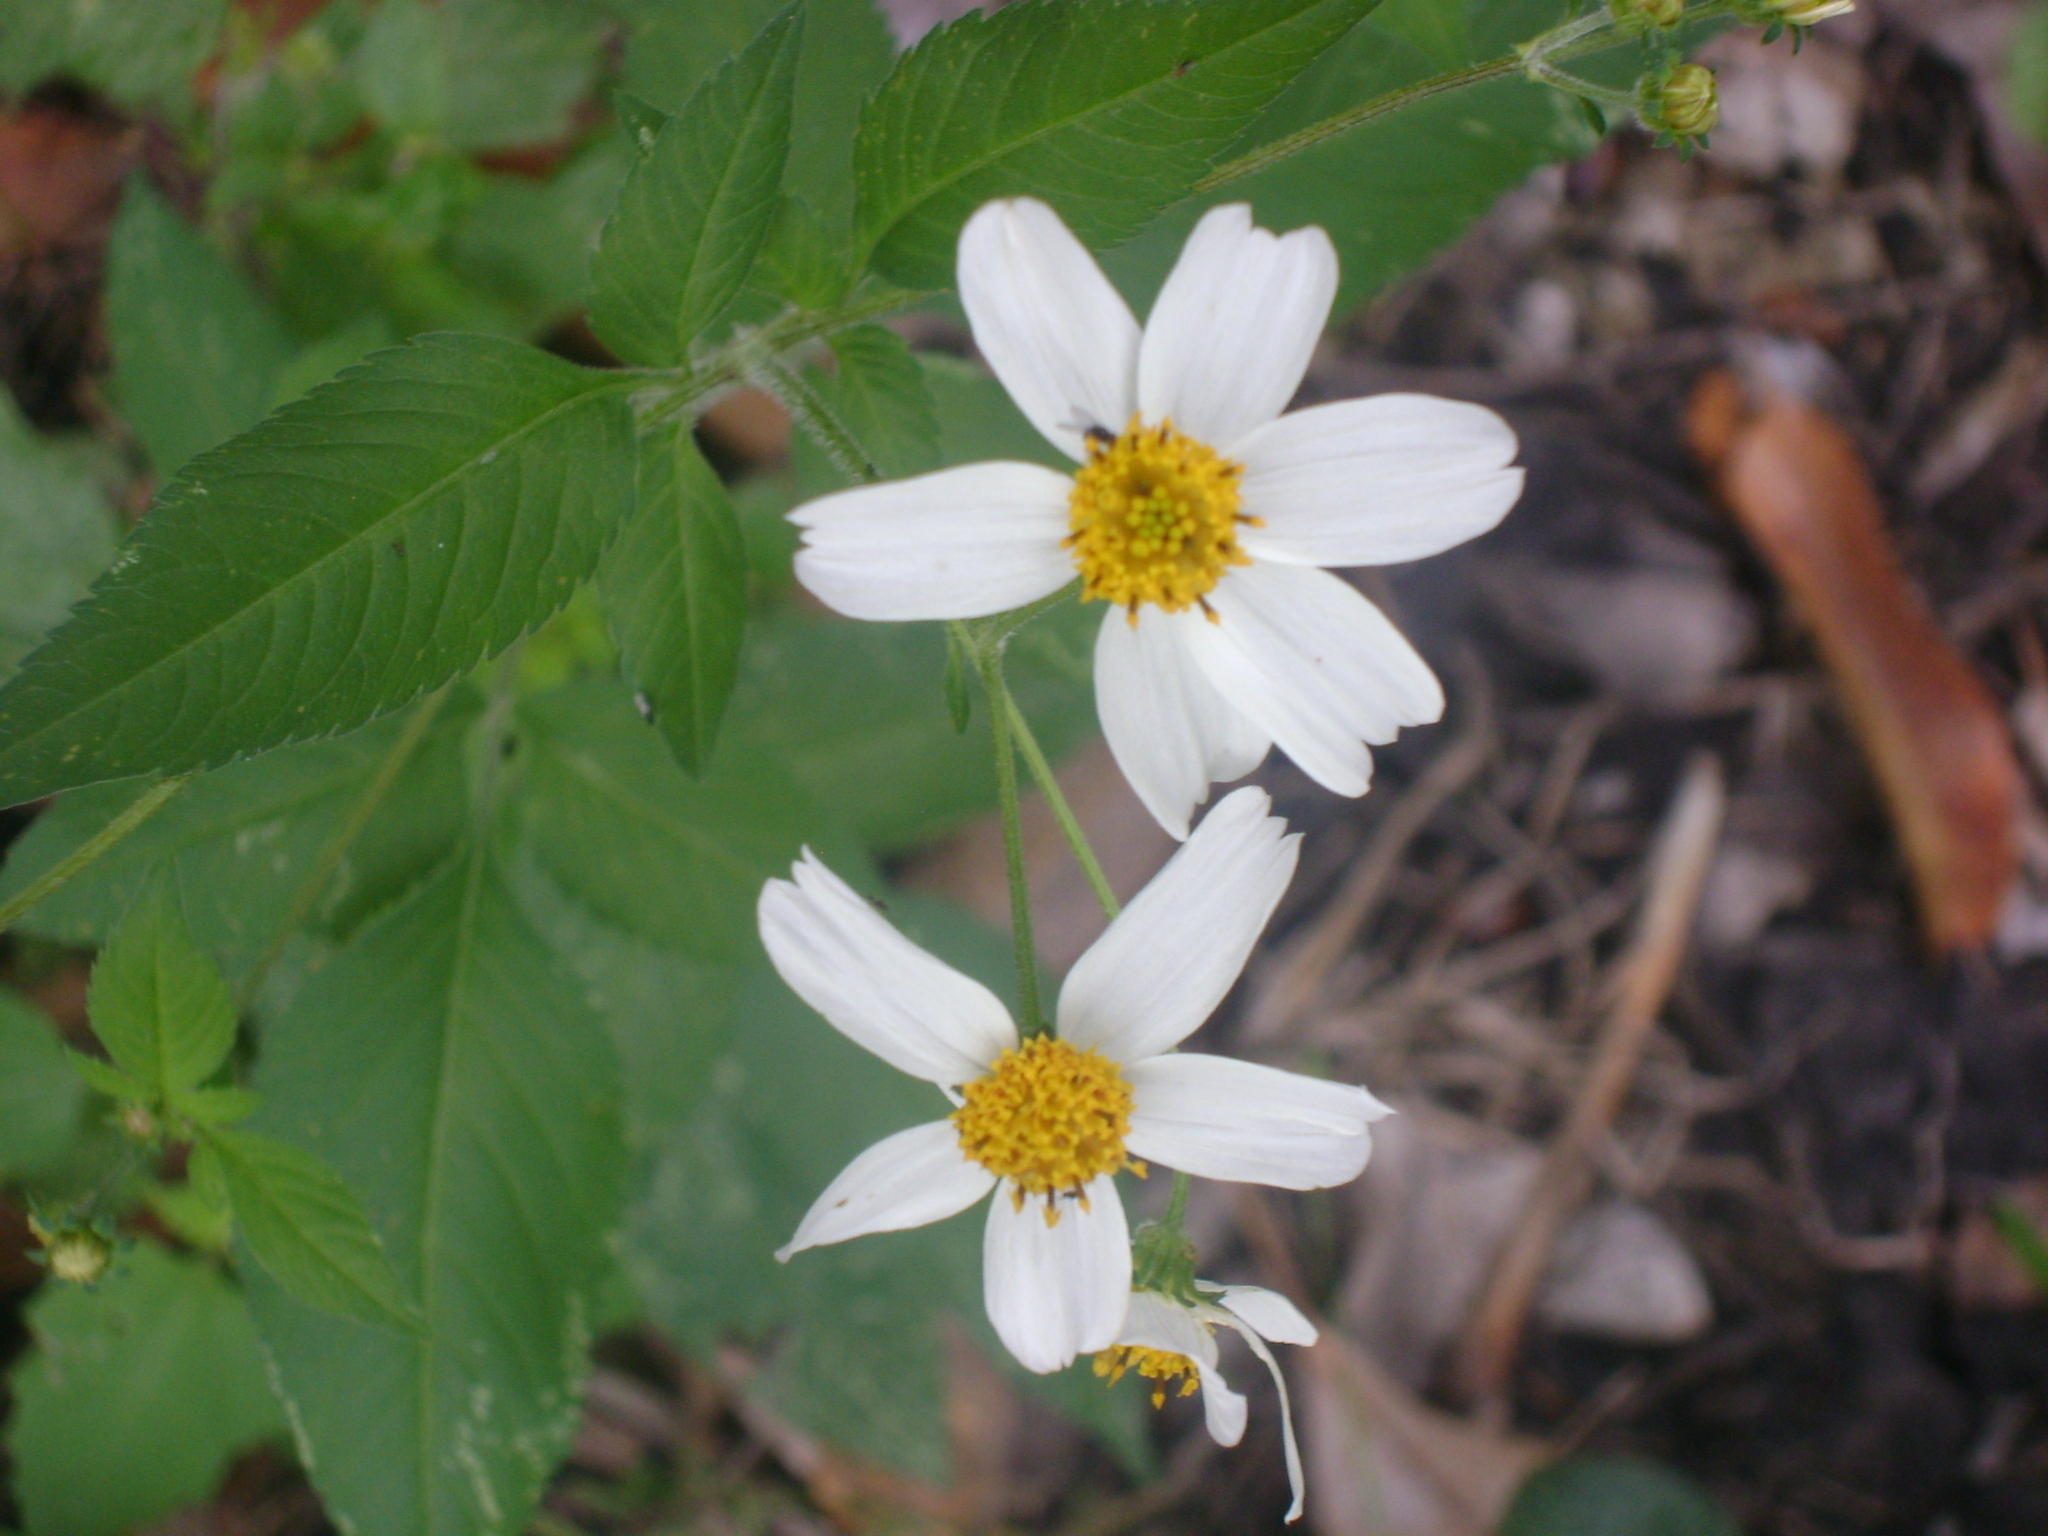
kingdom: Plantae
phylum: Tracheophyta
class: Magnoliopsida
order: Asterales
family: Asteraceae
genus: Bidens
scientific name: Bidens alba
